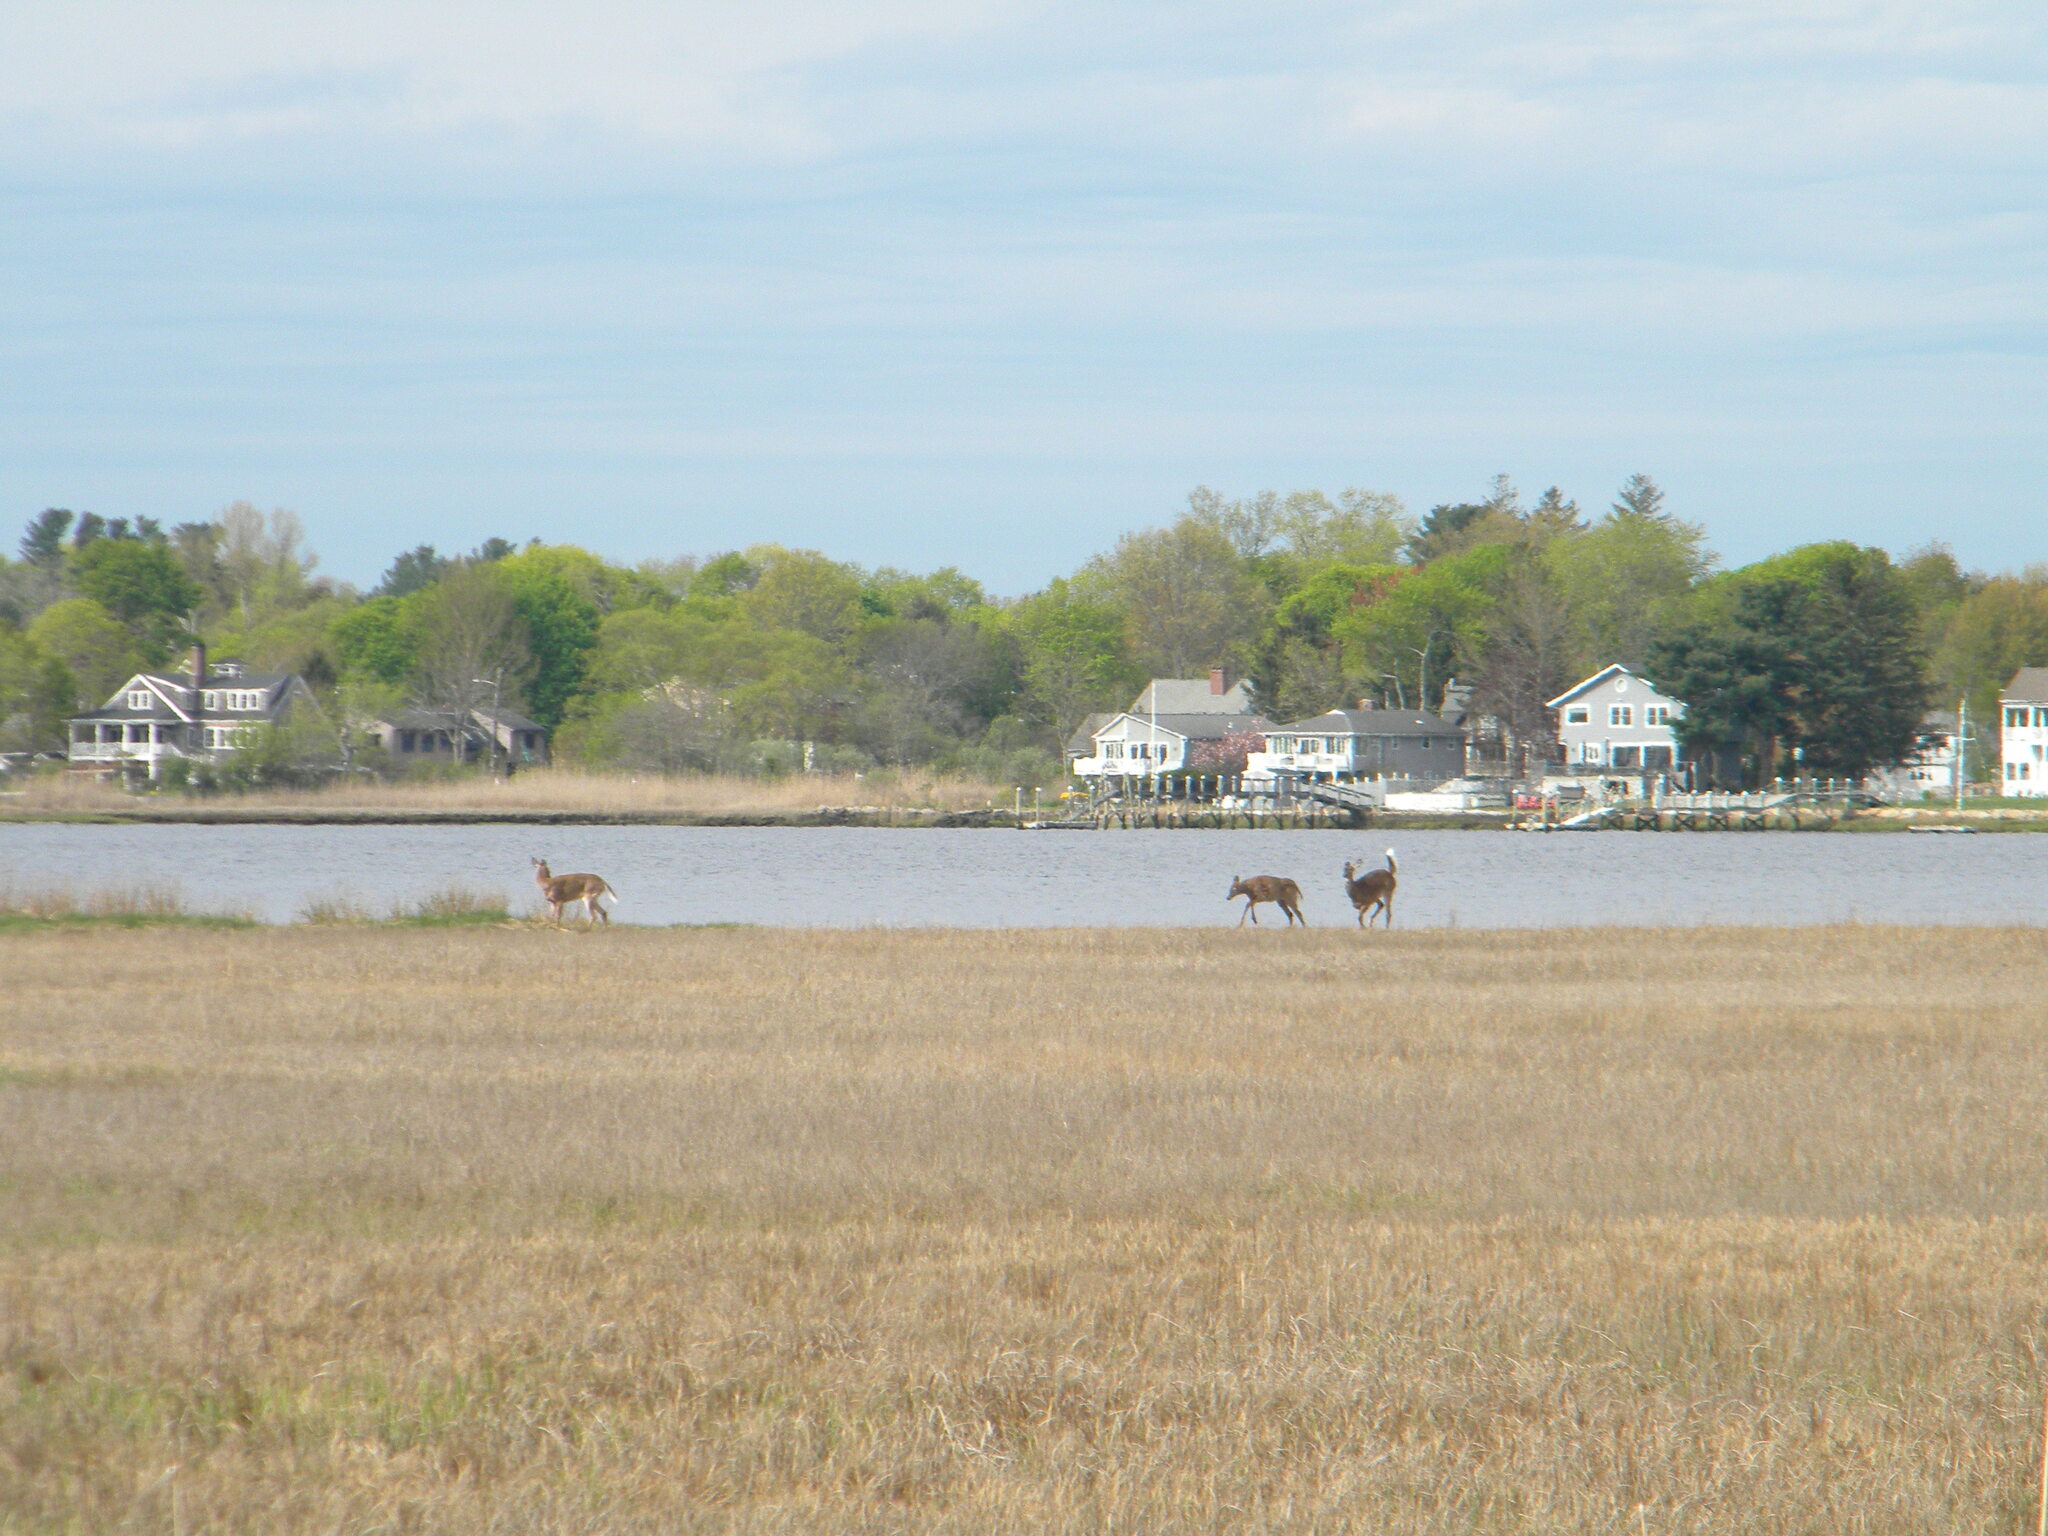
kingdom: Animalia
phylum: Chordata
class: Mammalia
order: Artiodactyla
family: Cervidae
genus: Odocoileus
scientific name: Odocoileus virginianus
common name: White-tailed deer
